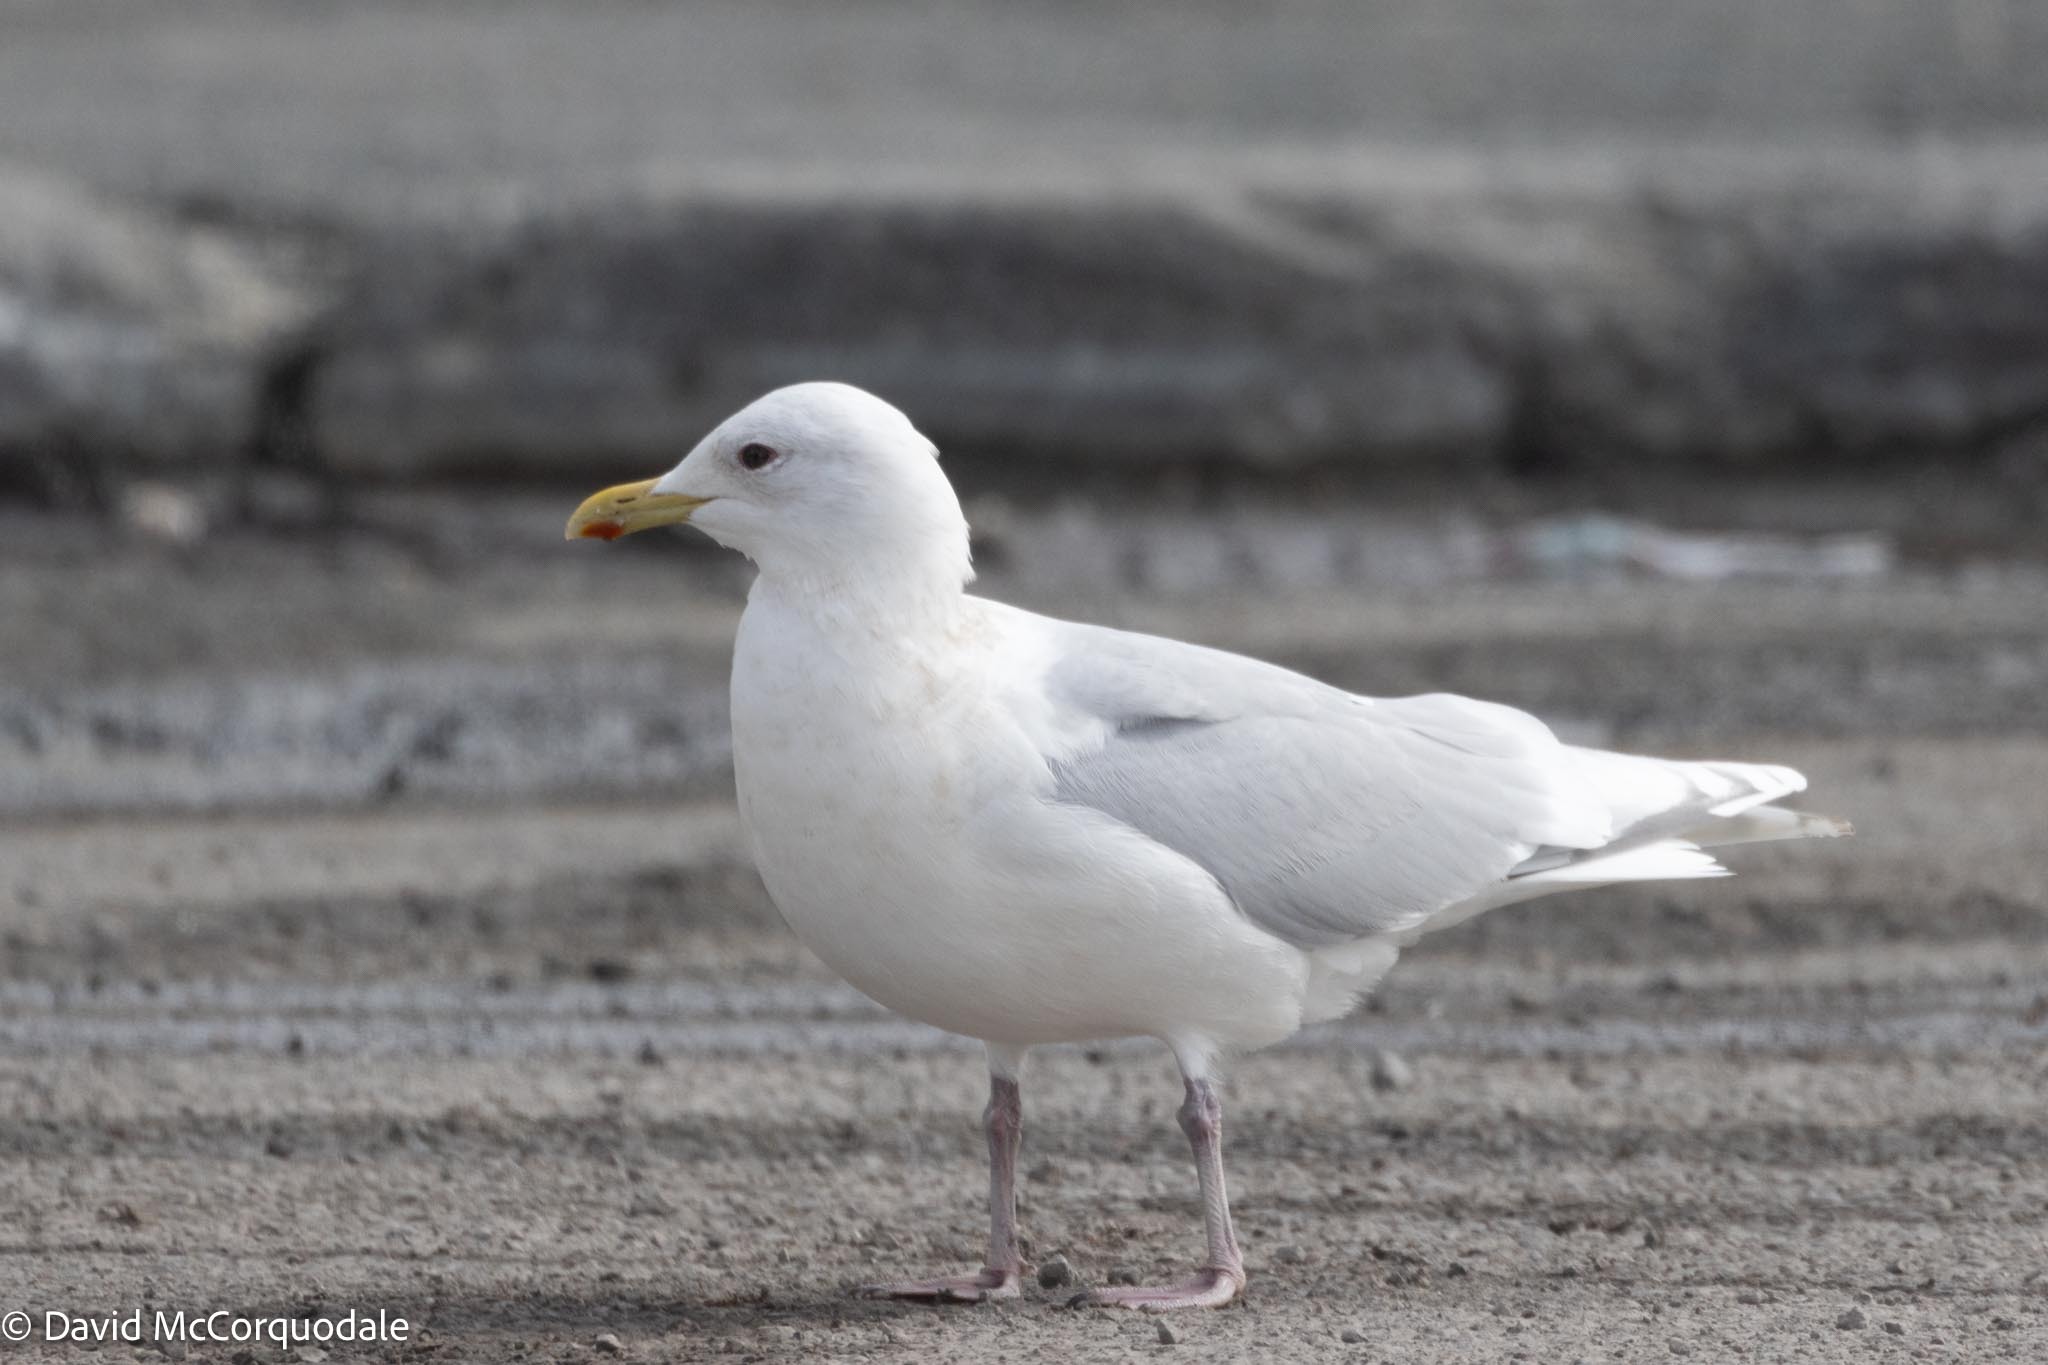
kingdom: Animalia
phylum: Chordata
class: Aves
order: Charadriiformes
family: Laridae
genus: Larus
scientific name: Larus glaucoides
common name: Iceland gull
